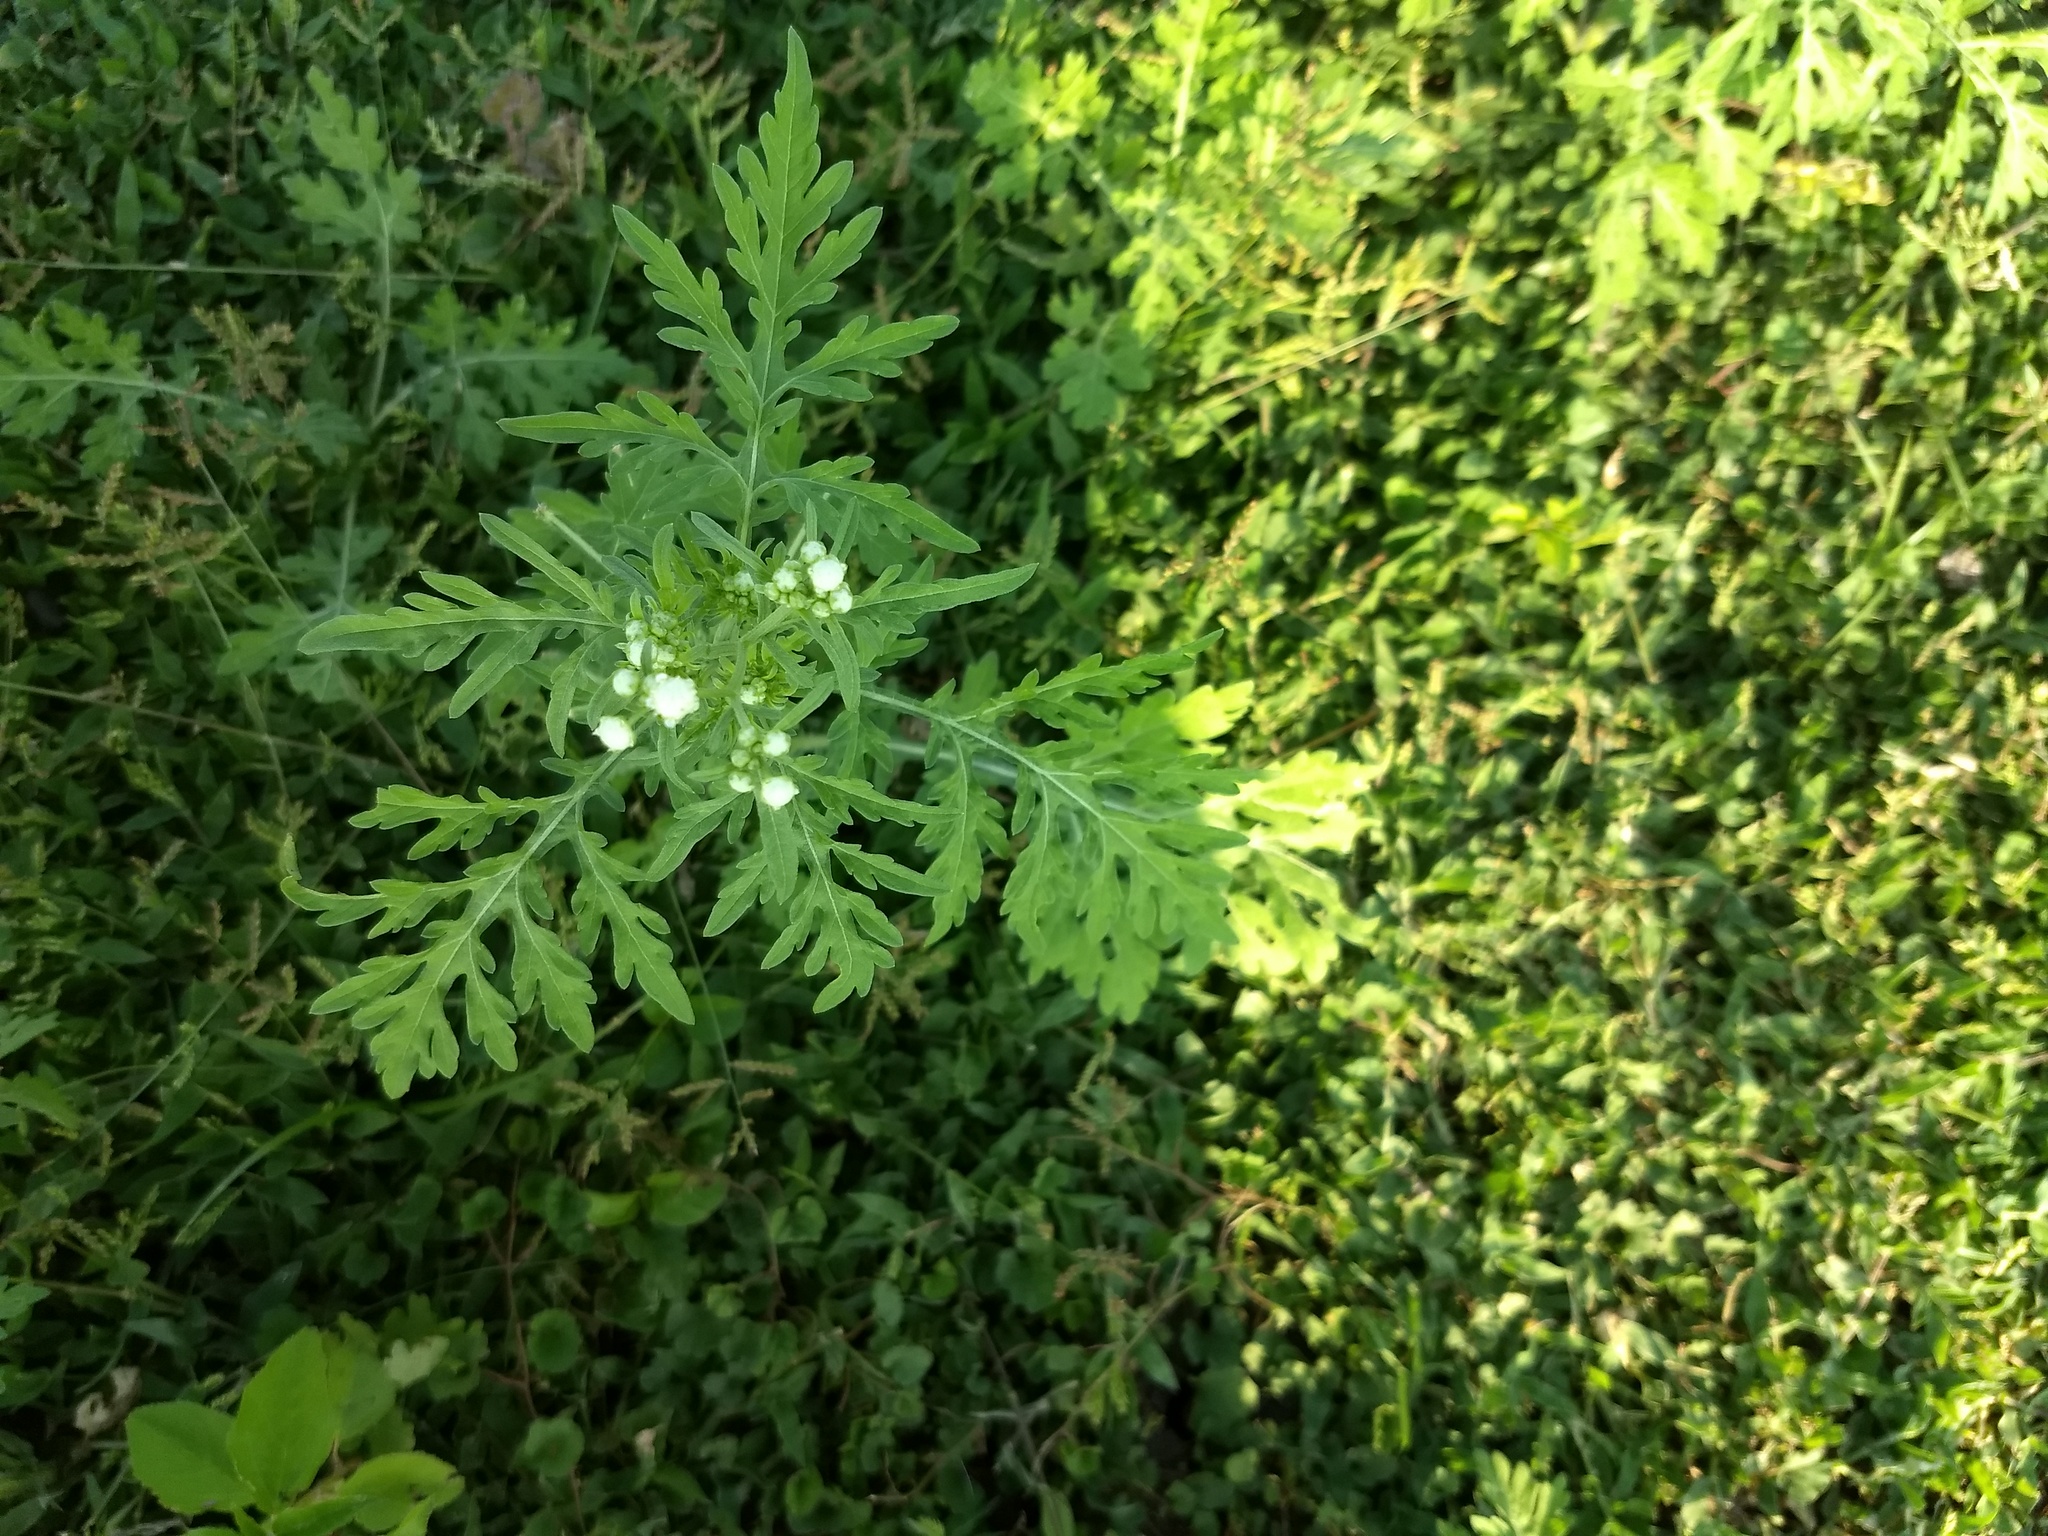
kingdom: Plantae
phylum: Tracheophyta
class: Magnoliopsida
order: Asterales
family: Asteraceae
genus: Parthenium
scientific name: Parthenium hysterophorus
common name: Santa maria feverfew
